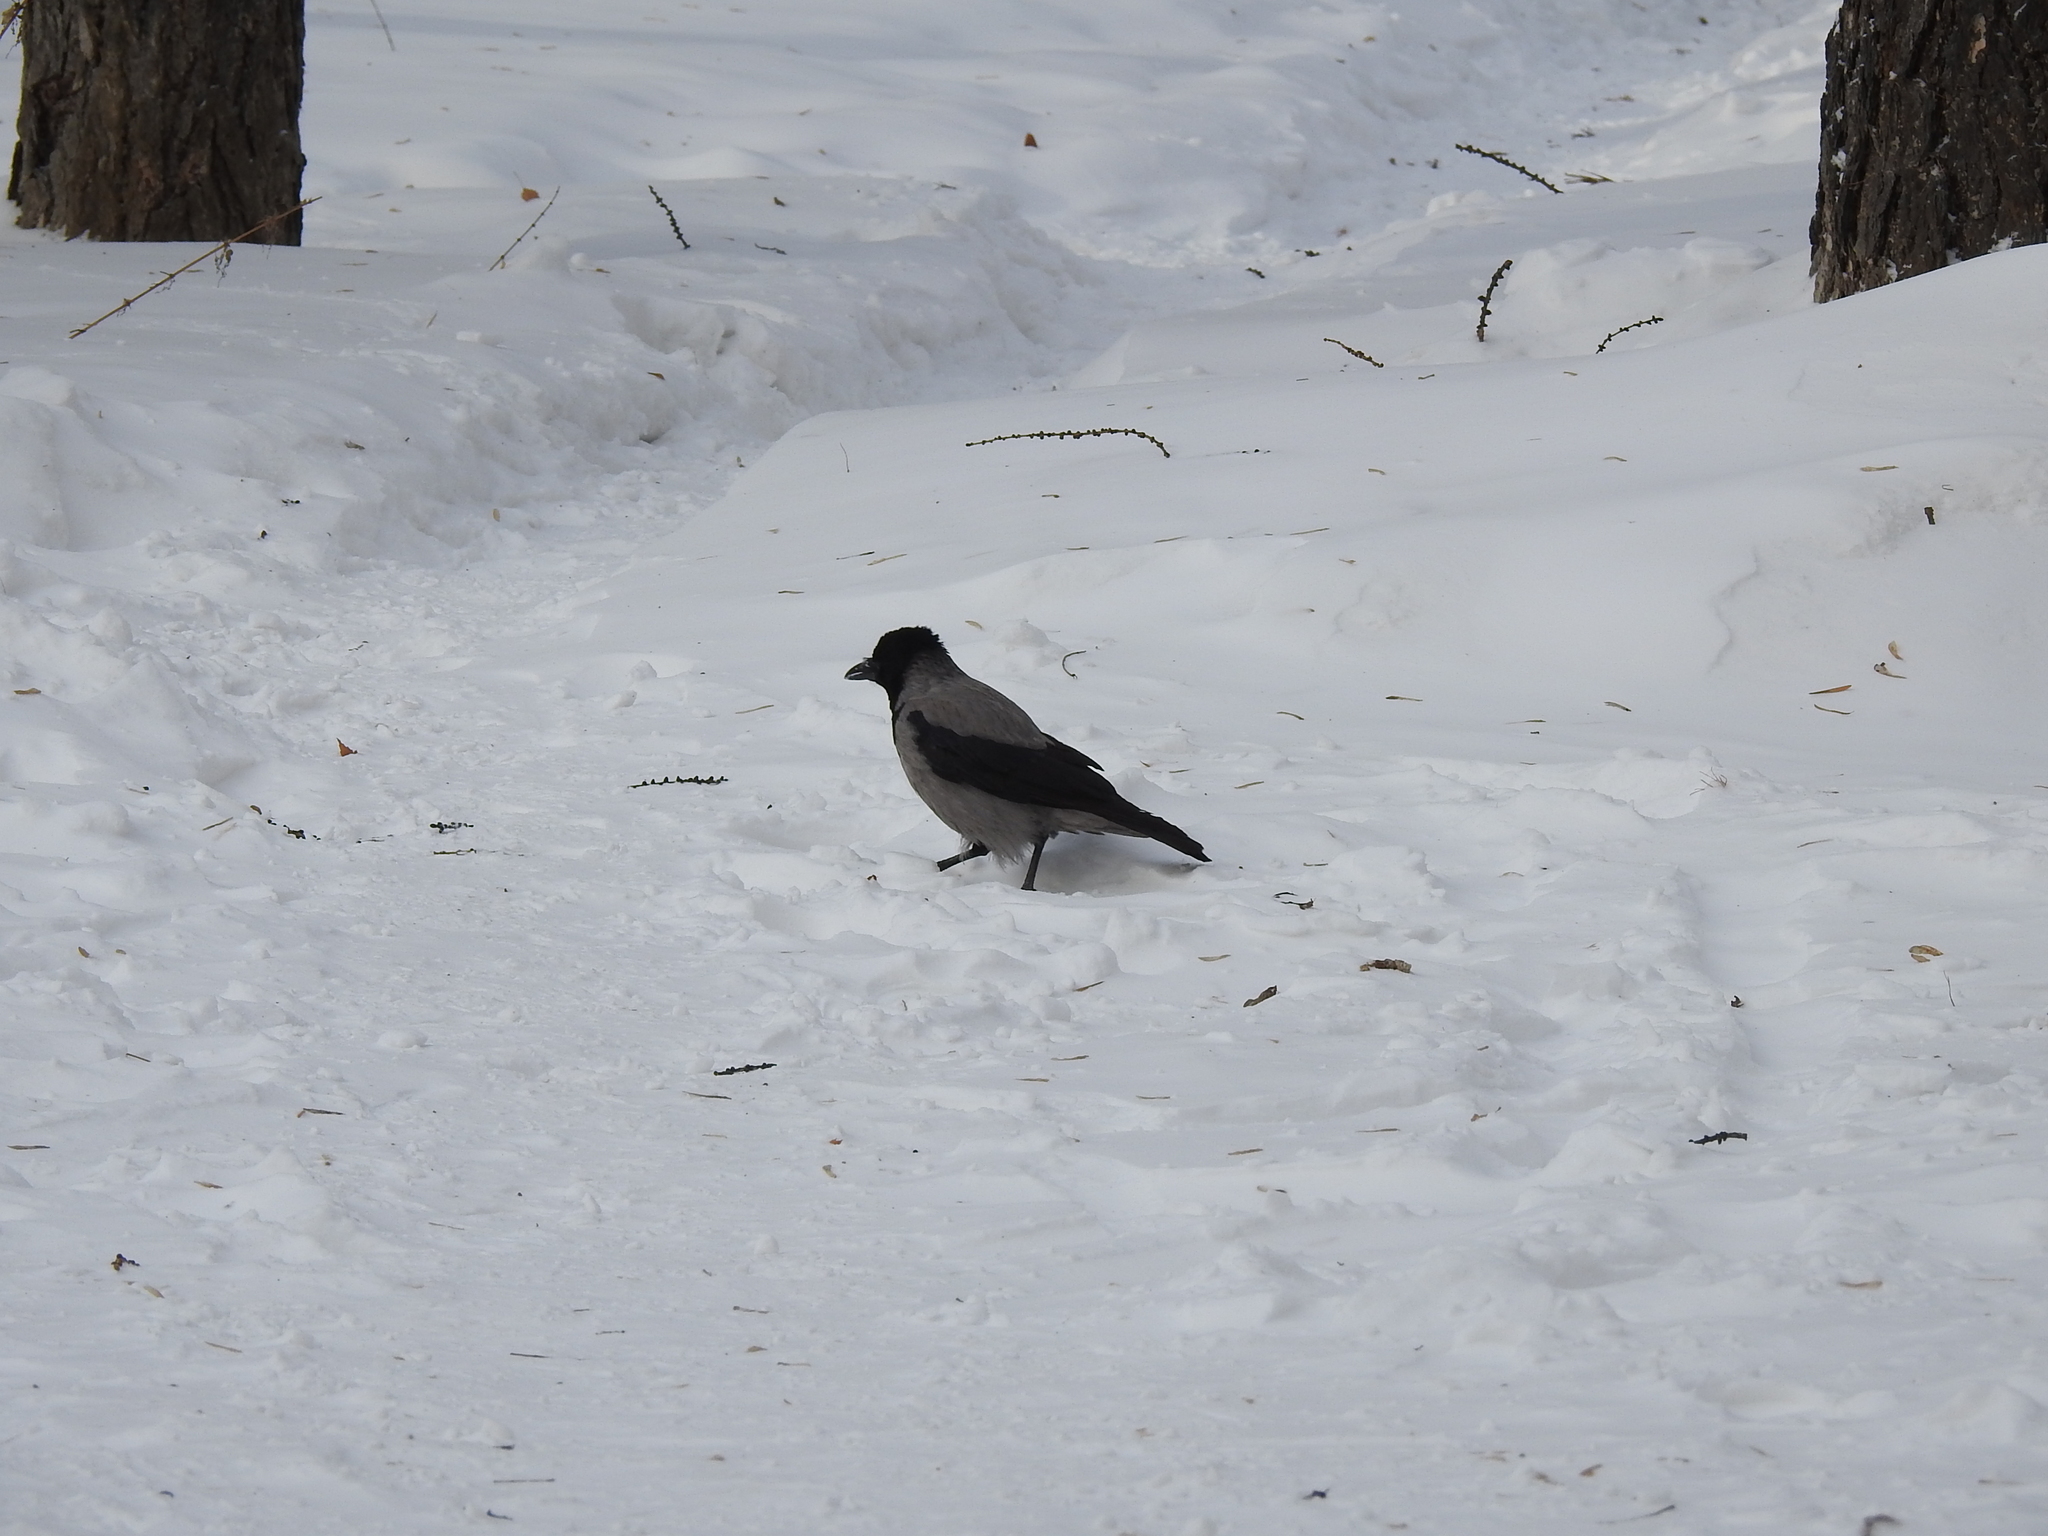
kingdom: Animalia
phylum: Chordata
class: Aves
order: Passeriformes
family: Corvidae
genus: Corvus
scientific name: Corvus cornix
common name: Hooded crow
